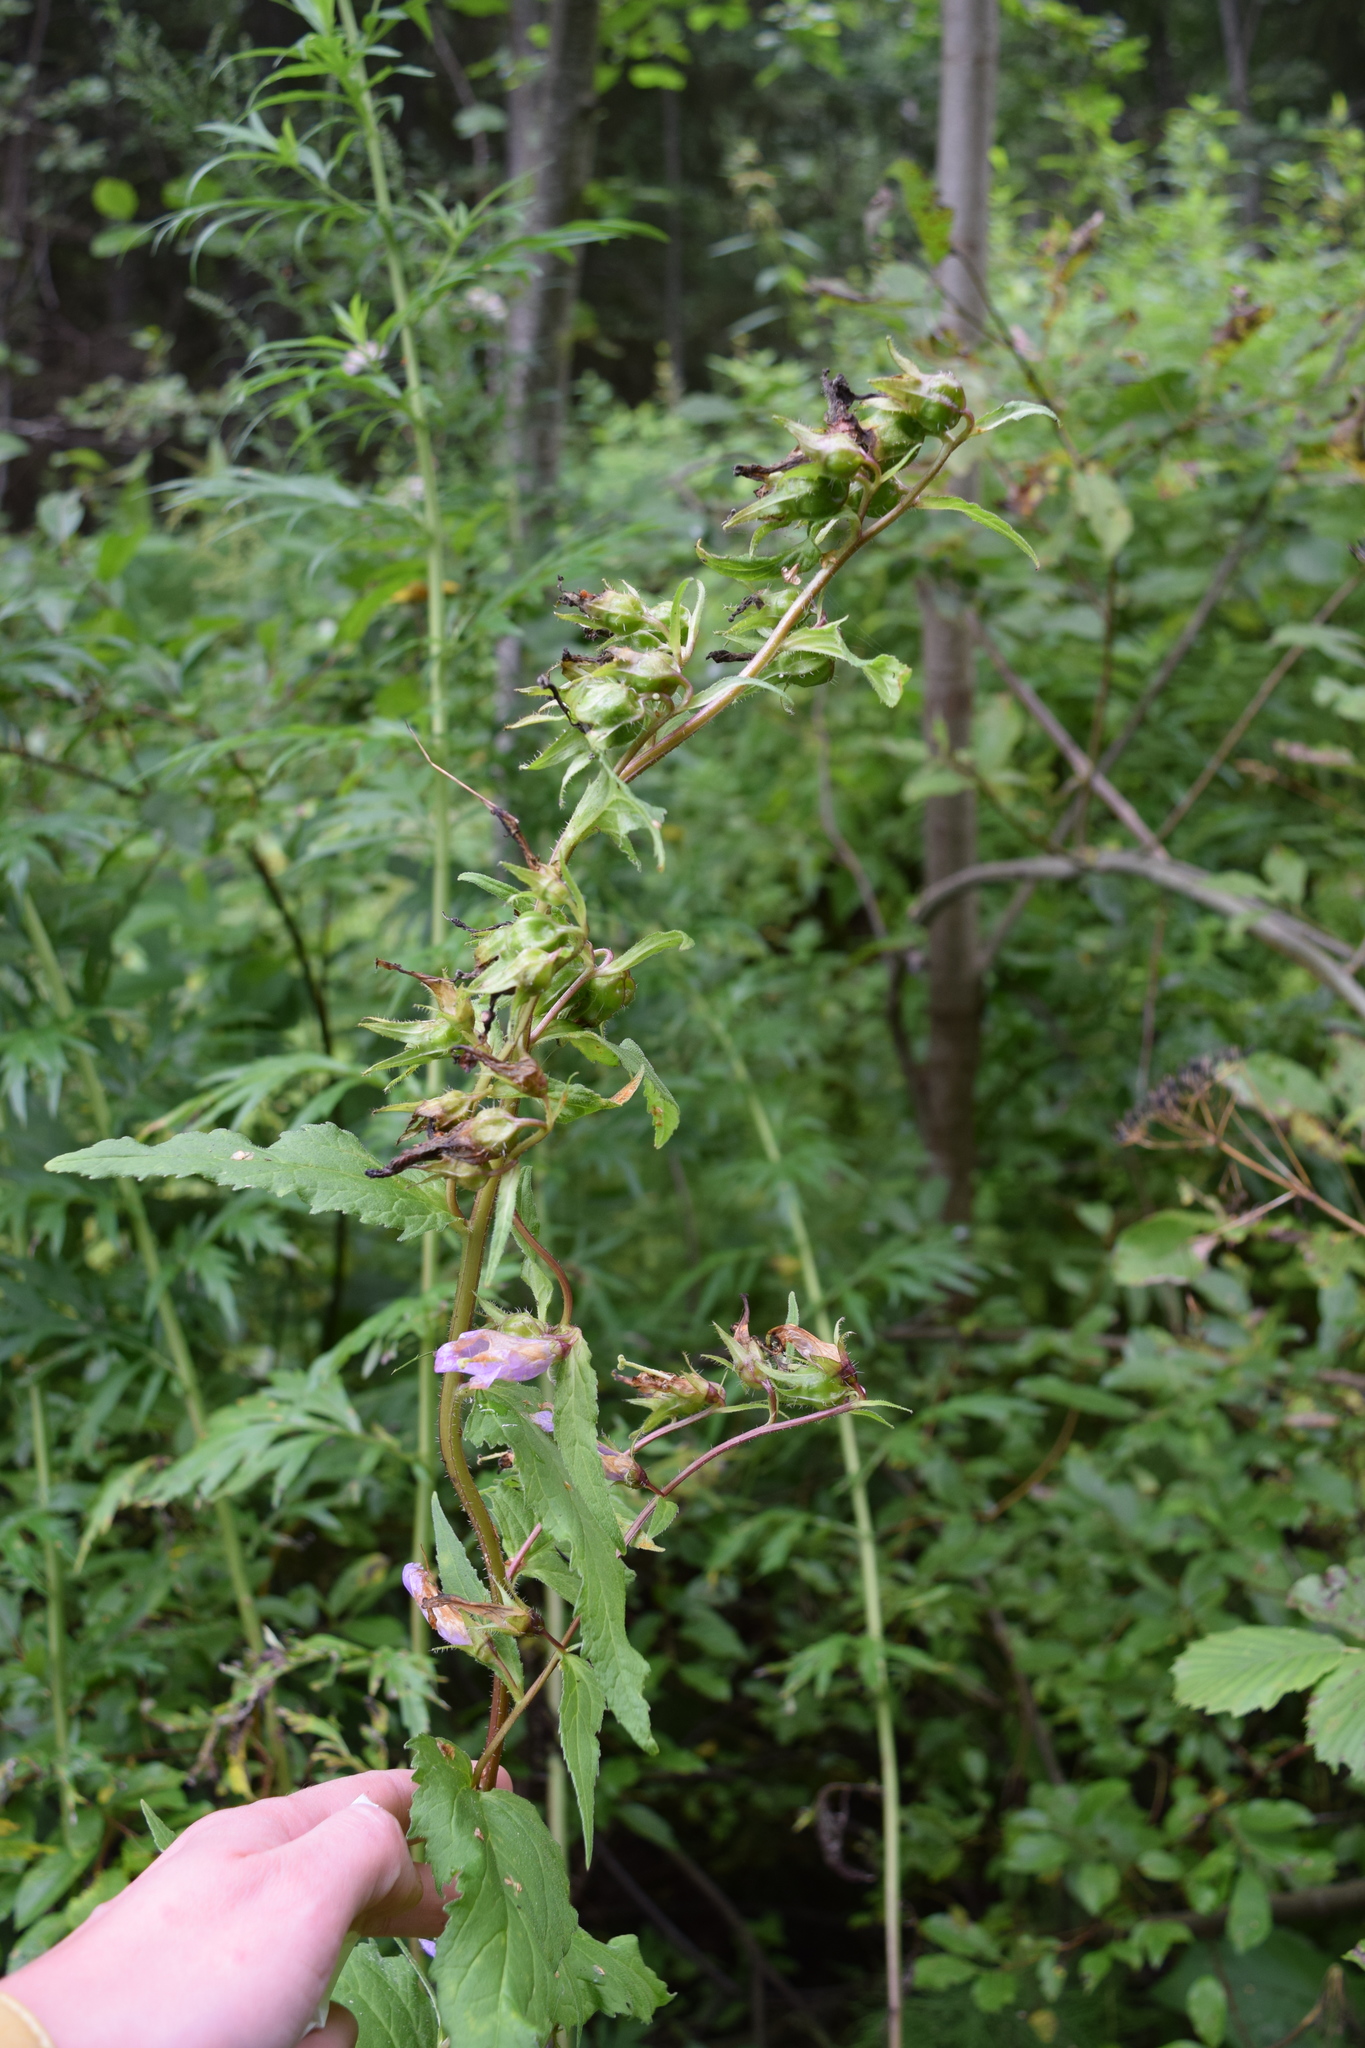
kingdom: Plantae
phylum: Tracheophyta
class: Magnoliopsida
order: Asterales
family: Campanulaceae
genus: Campanula
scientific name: Campanula trachelium
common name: Nettle-leaved bellflower
